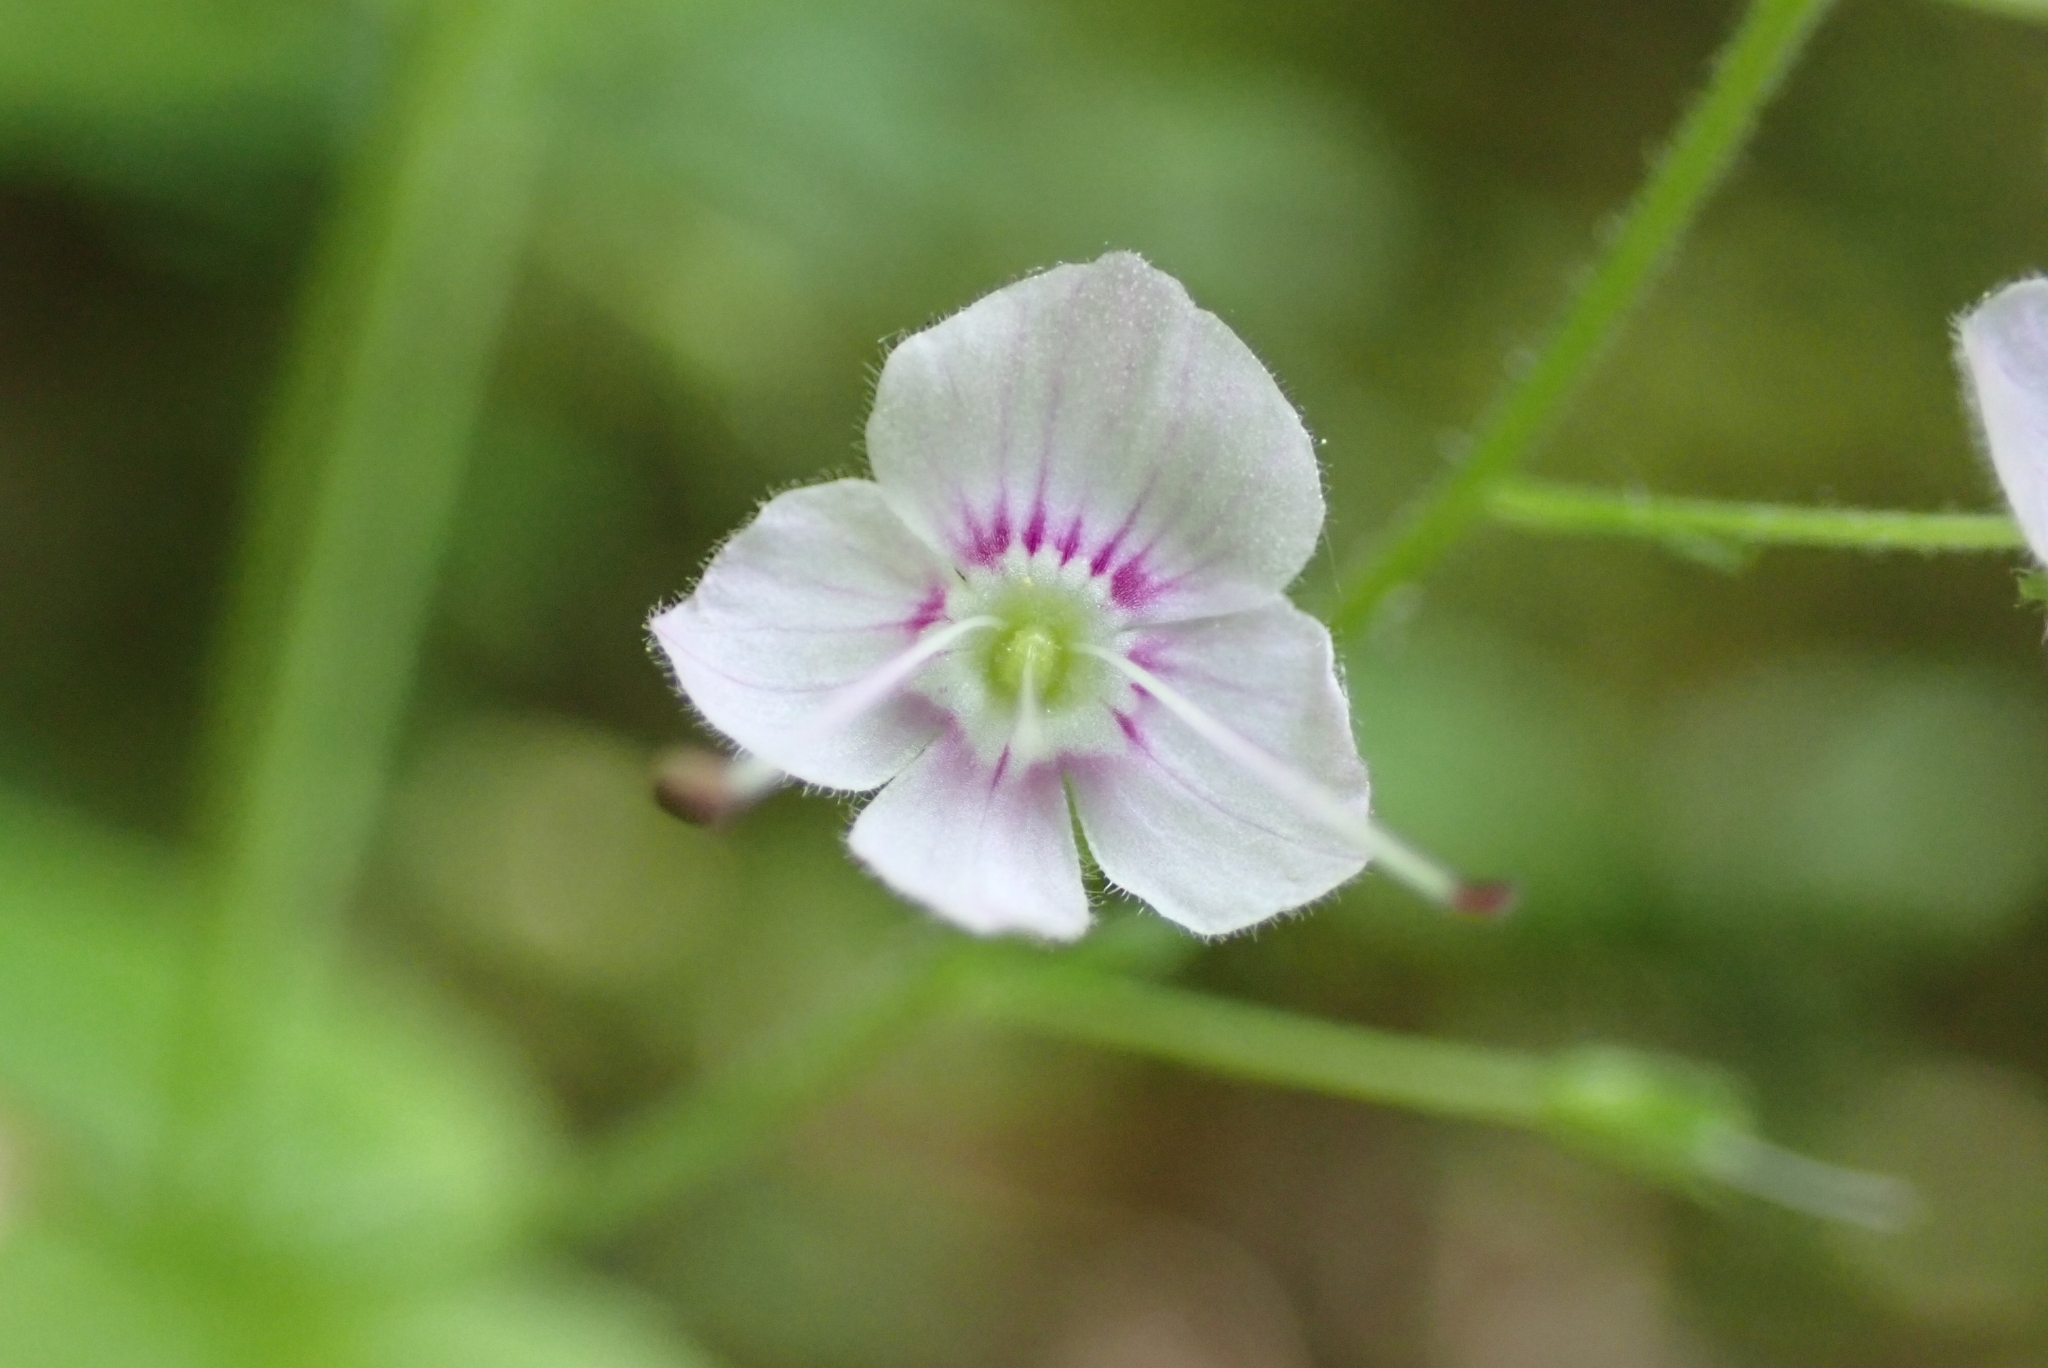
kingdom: Plantae
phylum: Tracheophyta
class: Magnoliopsida
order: Lamiales
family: Plantaginaceae
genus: Veronica
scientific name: Veronica urticifolia
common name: Nettle-leaf speedwell
